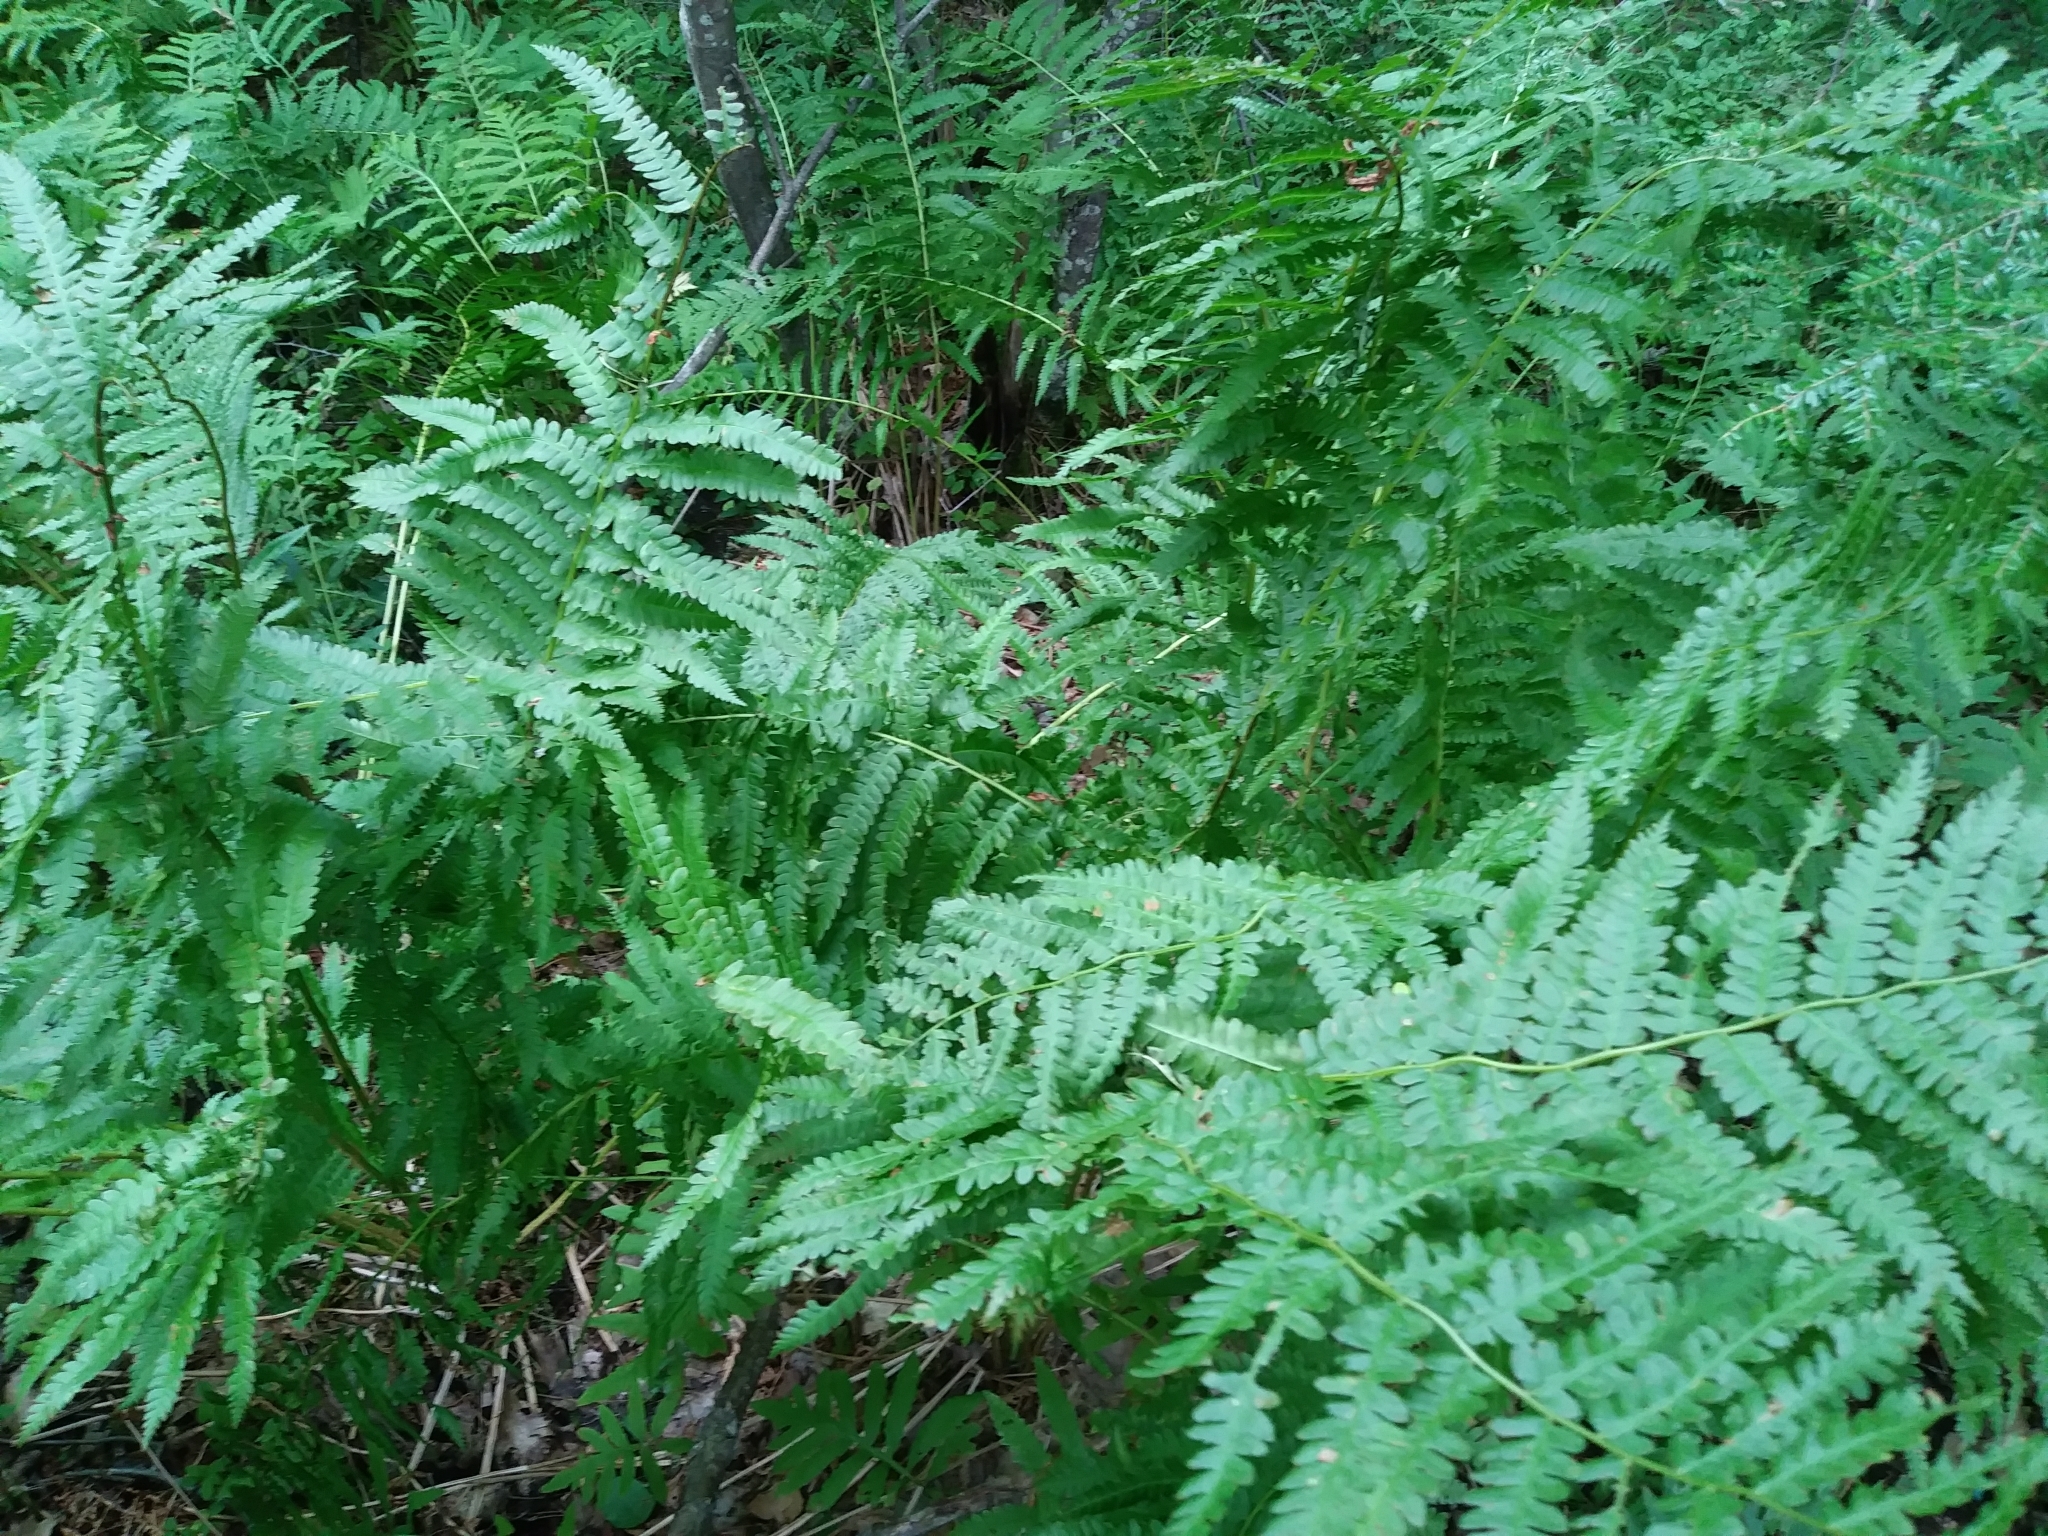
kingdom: Plantae
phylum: Tracheophyta
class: Polypodiopsida
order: Osmundales
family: Osmundaceae
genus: Osmundastrum
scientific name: Osmundastrum cinnamomeum
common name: Cinnamon fern
